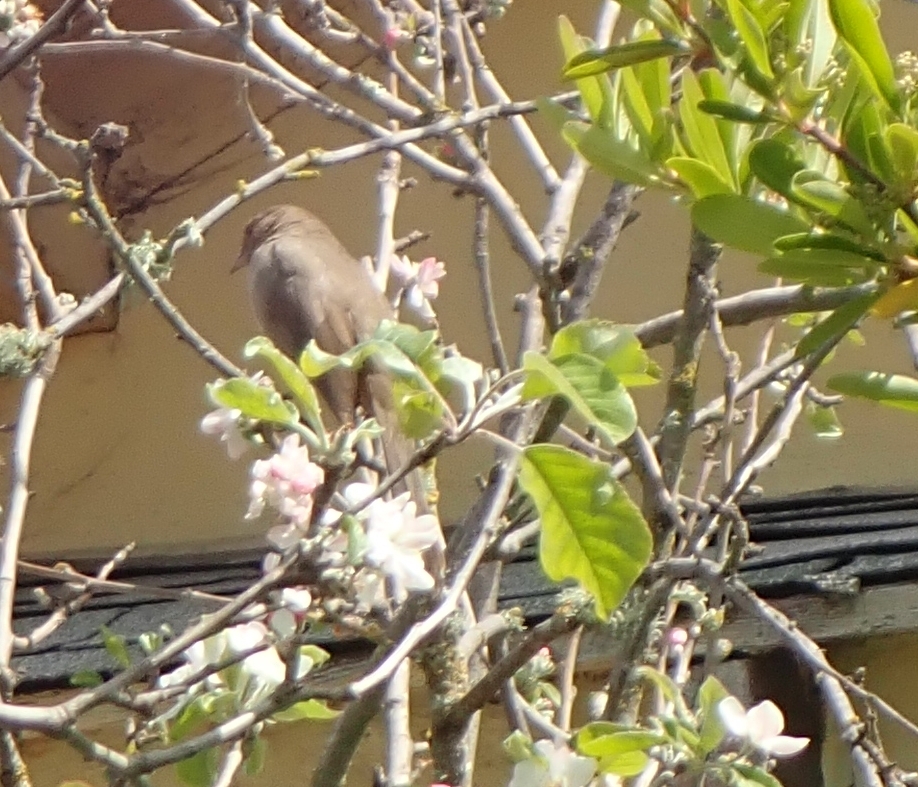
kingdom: Animalia
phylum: Chordata
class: Aves
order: Passeriformes
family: Passerellidae
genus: Melozone
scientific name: Melozone crissalis
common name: California towhee
